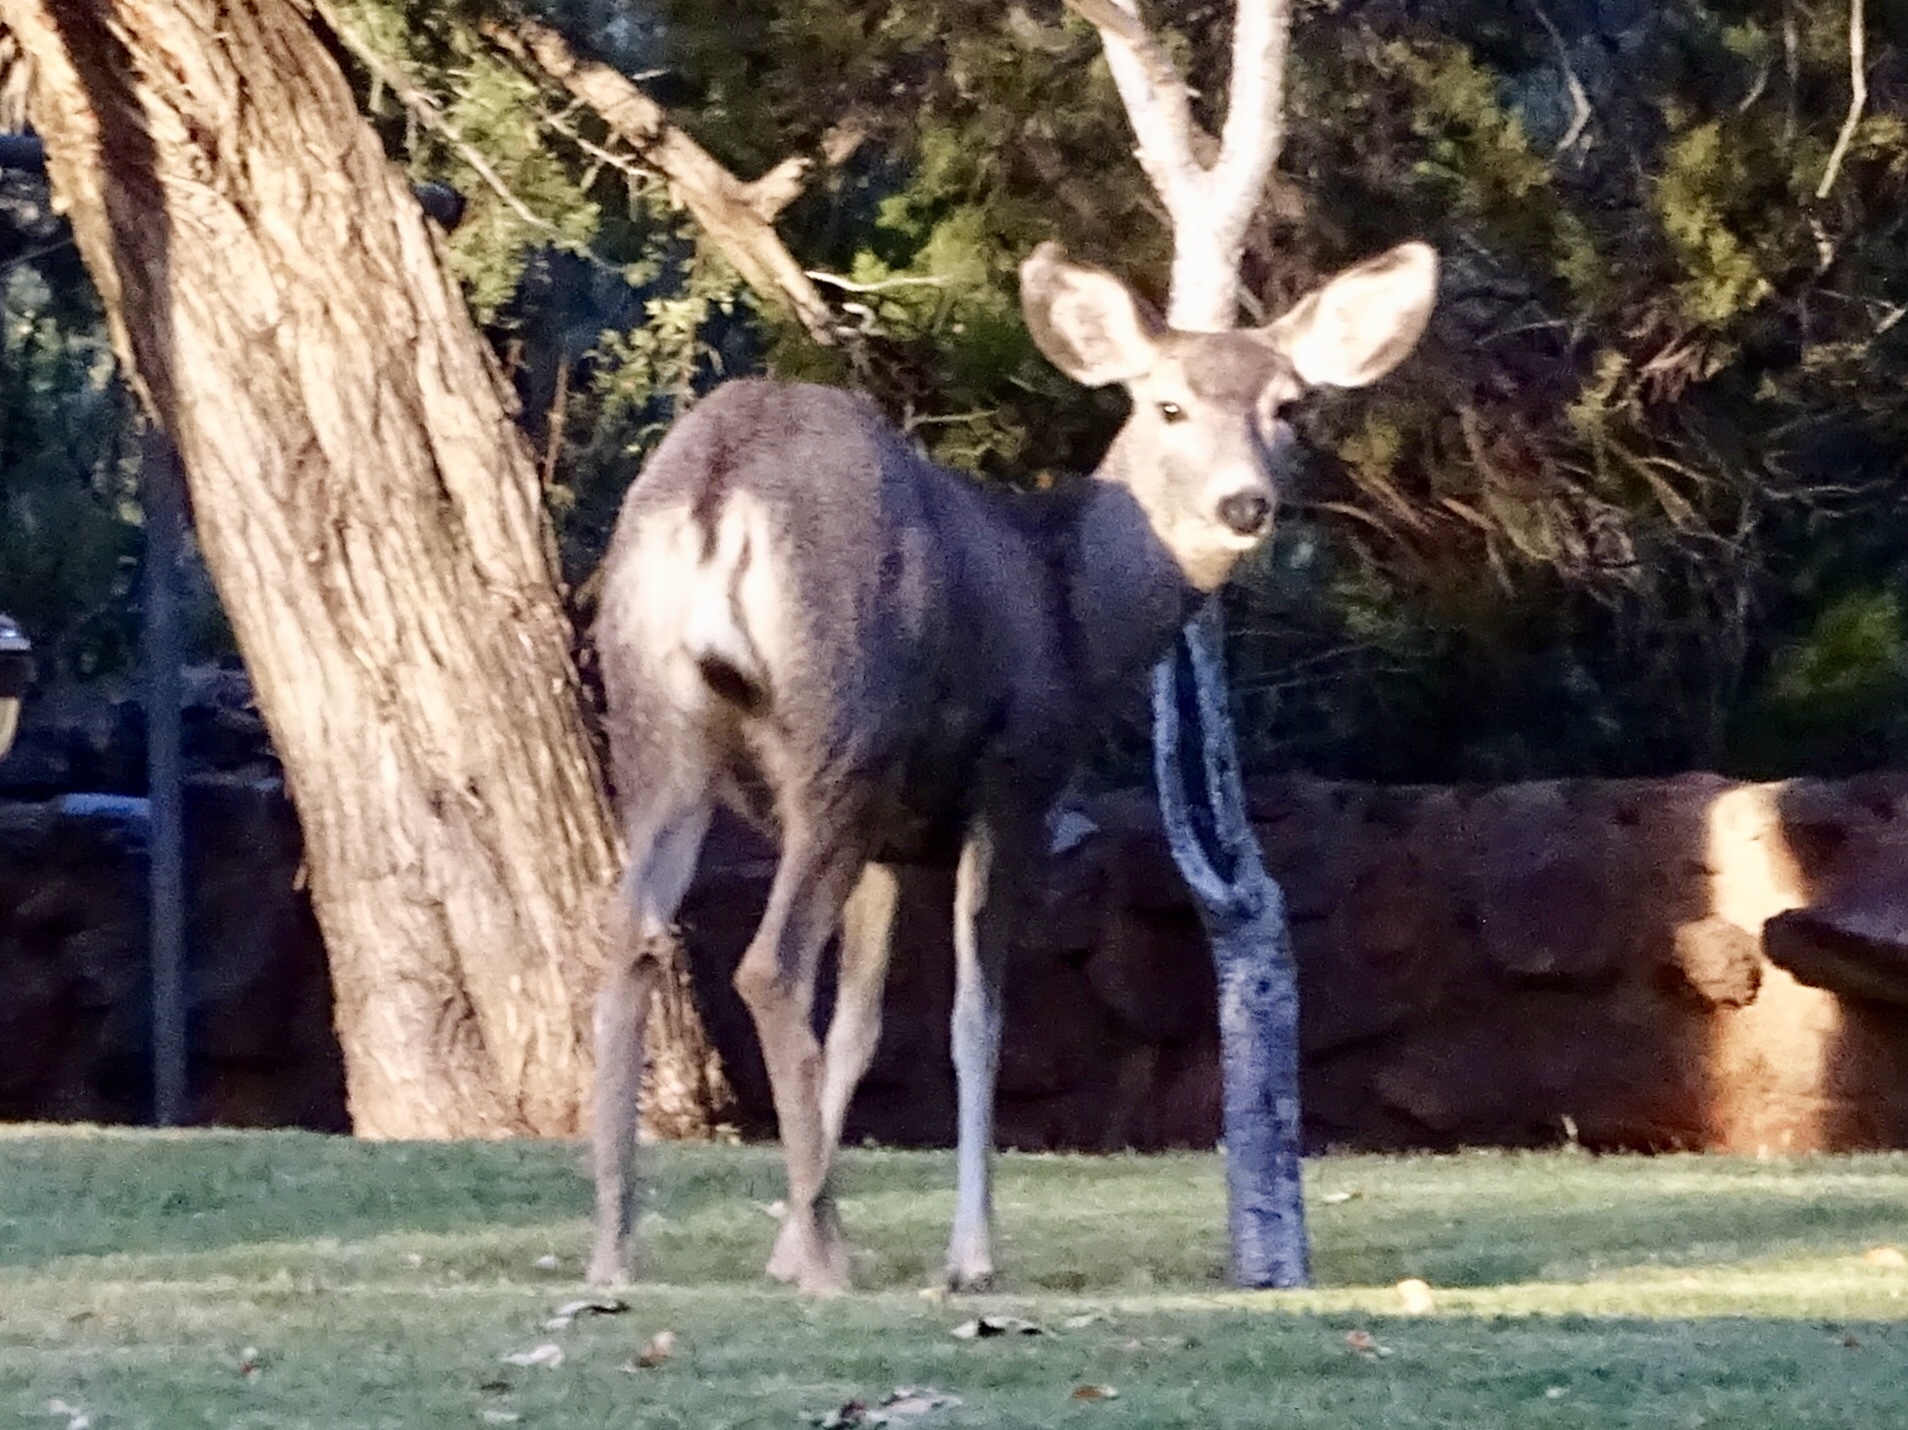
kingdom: Animalia
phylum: Chordata
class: Mammalia
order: Artiodactyla
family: Cervidae
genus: Odocoileus
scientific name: Odocoileus hemionus
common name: Mule deer
